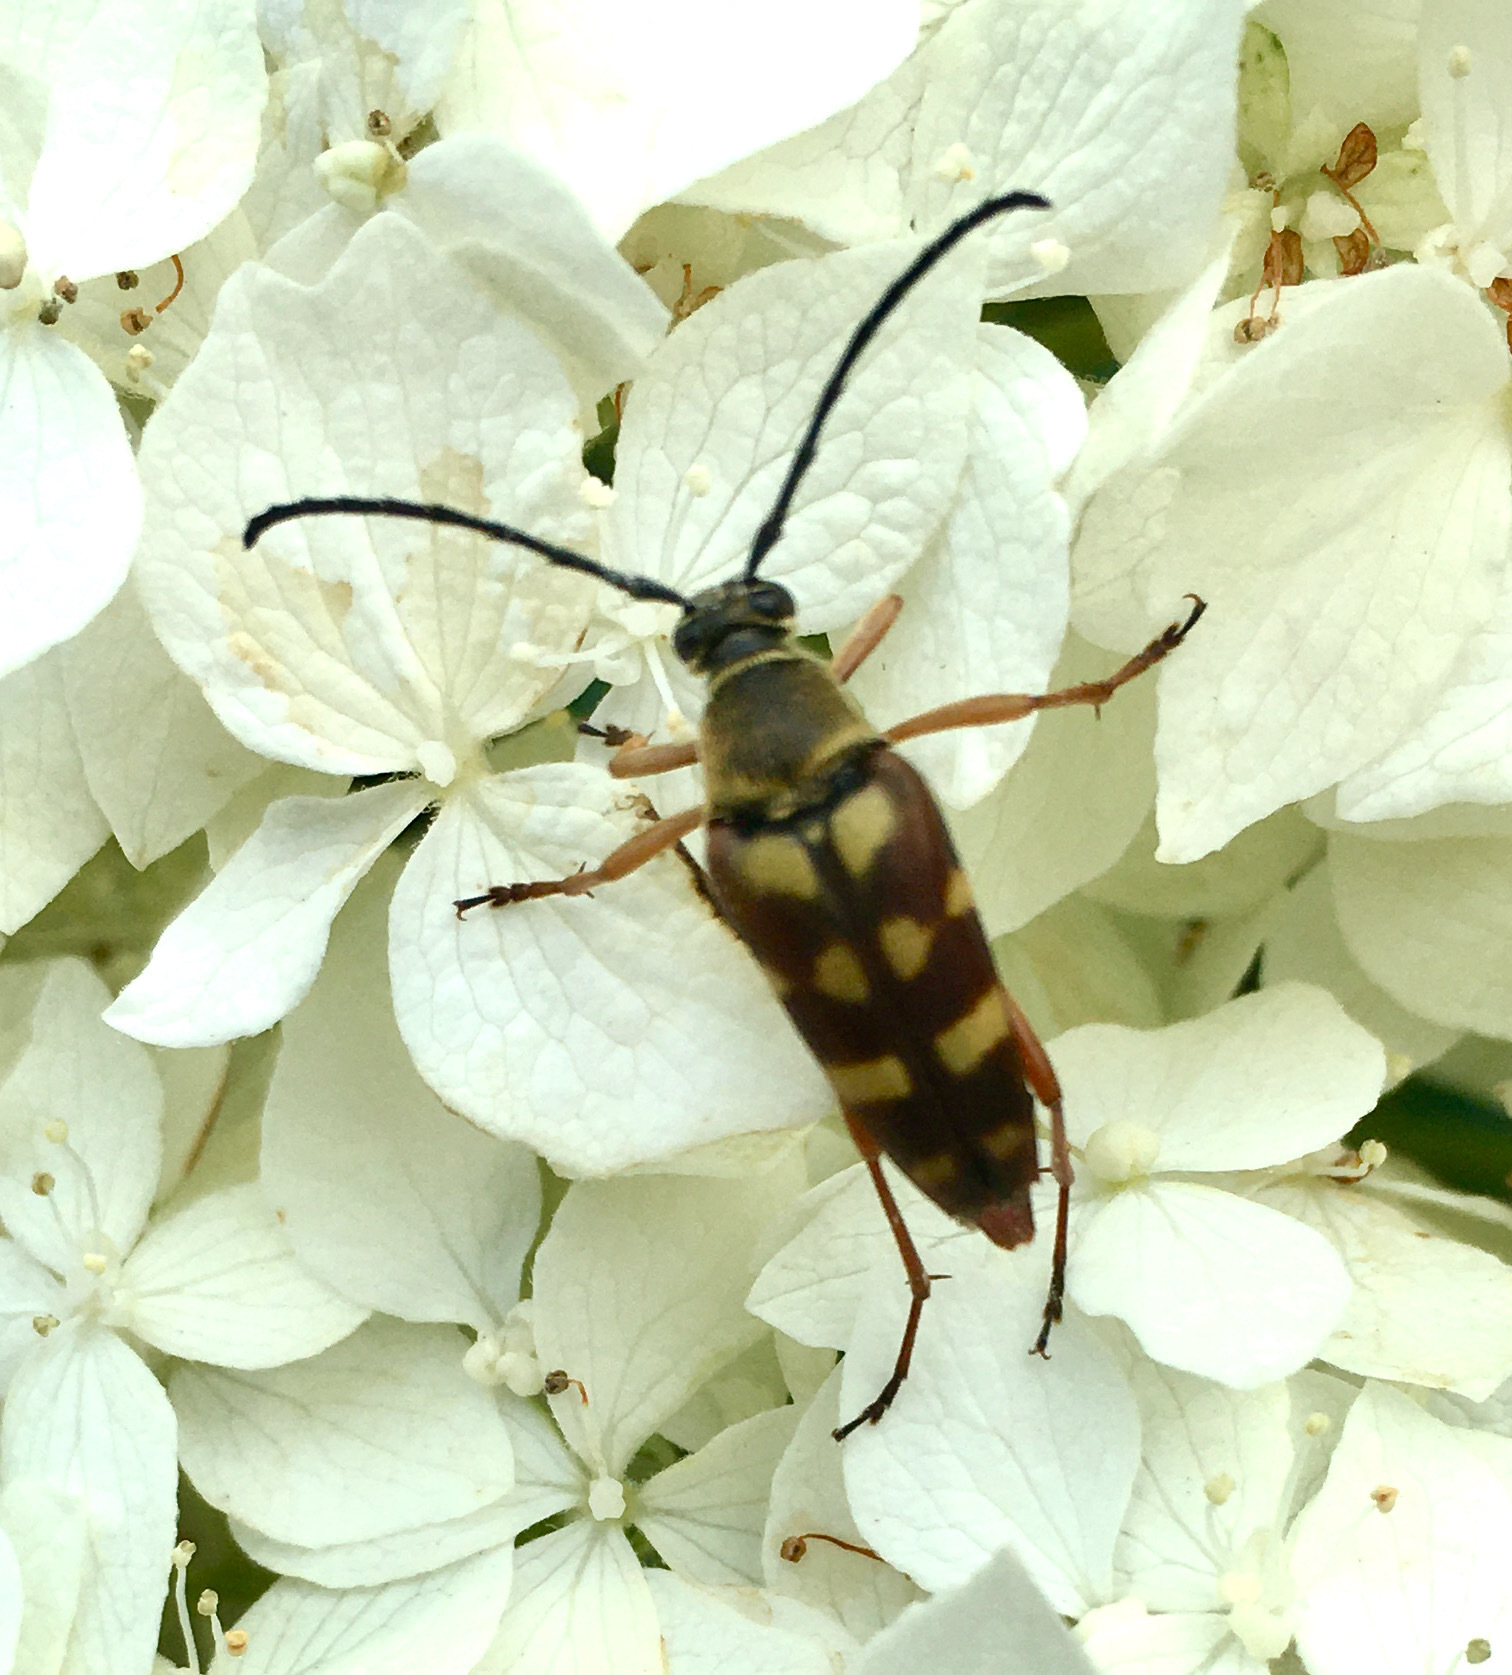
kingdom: Animalia
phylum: Arthropoda
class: Insecta
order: Coleoptera
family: Cerambycidae
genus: Typocerus
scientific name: Typocerus velutinus
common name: Banded longhorn beetle
